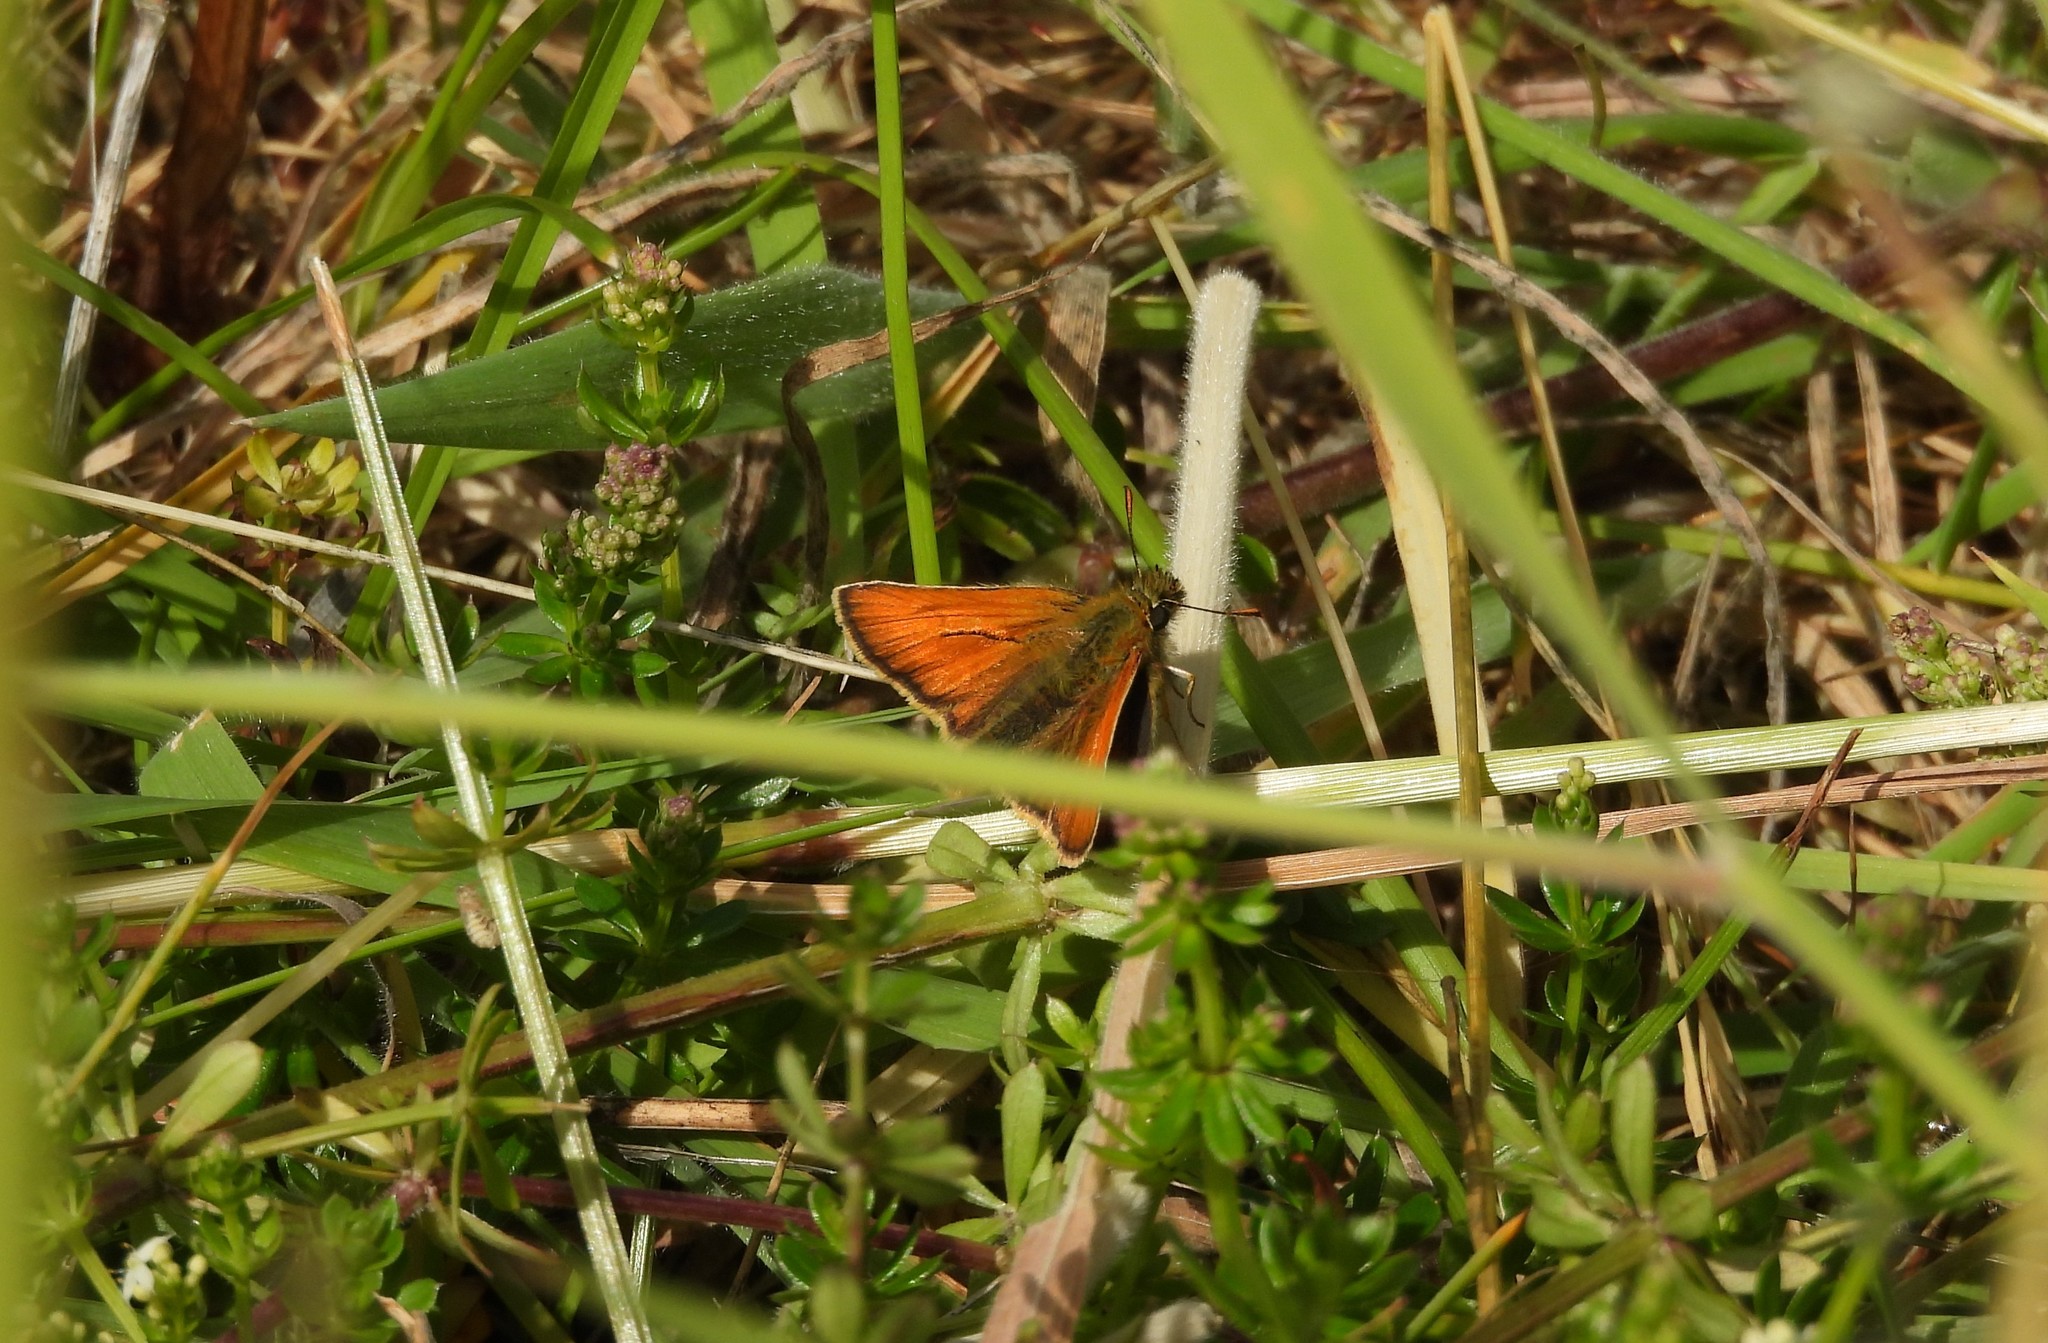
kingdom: Animalia
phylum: Arthropoda
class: Insecta
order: Lepidoptera
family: Hesperiidae
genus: Thymelicus
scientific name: Thymelicus sylvestris
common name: Small skipper
